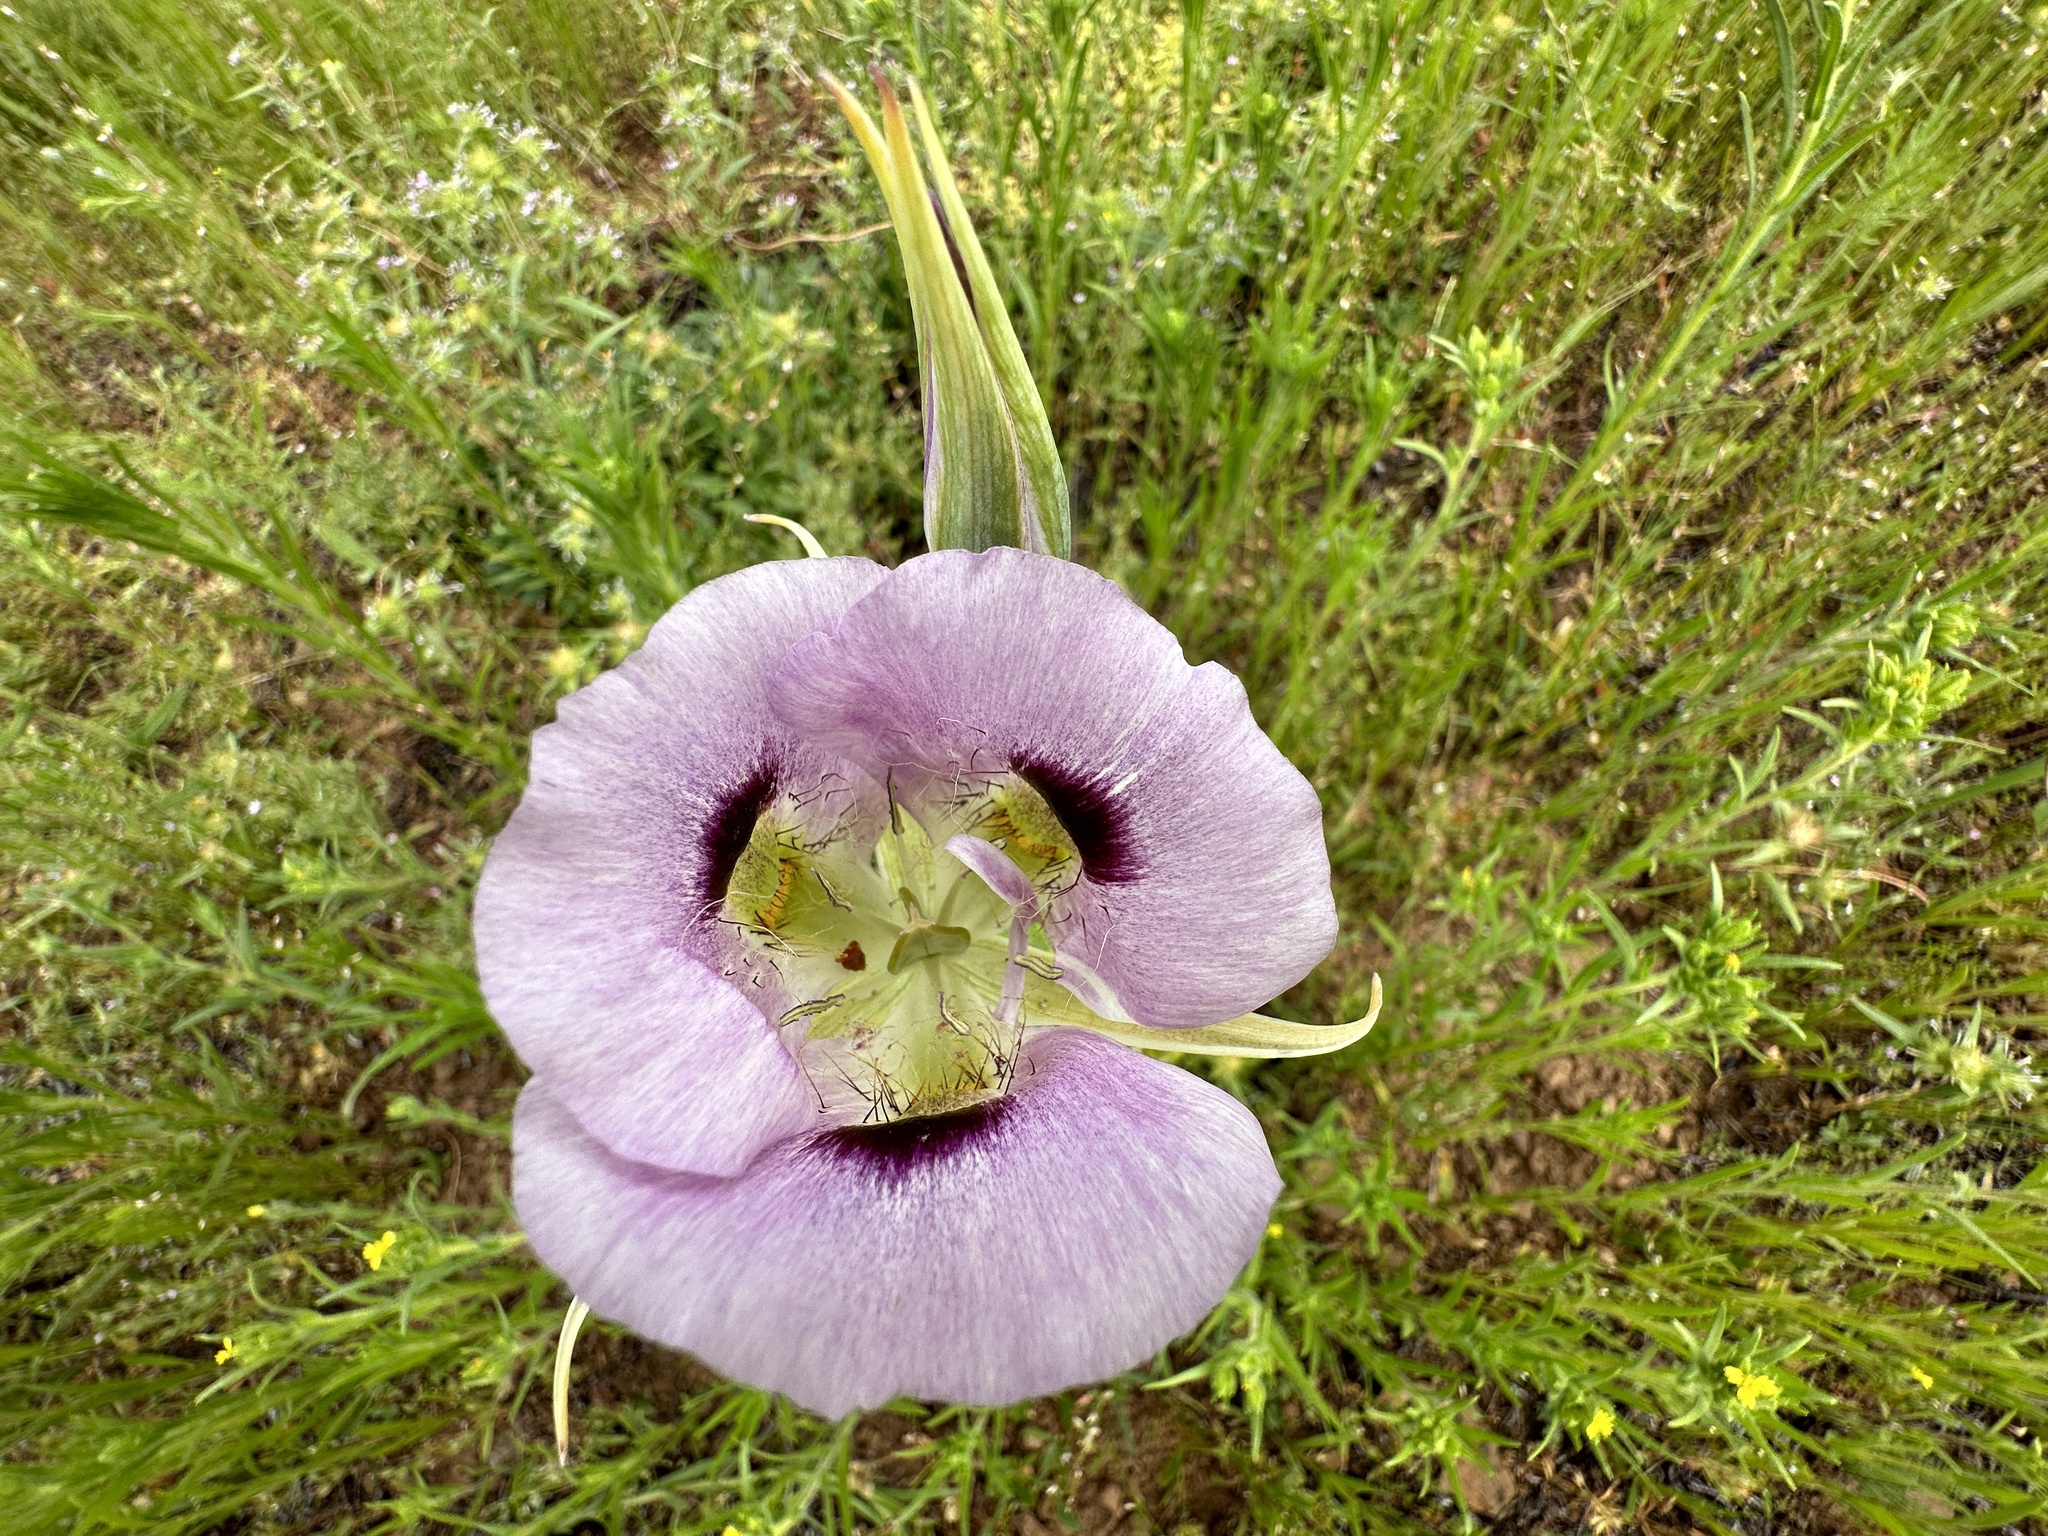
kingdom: Plantae
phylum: Tracheophyta
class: Liliopsida
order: Liliales
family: Liliaceae
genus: Calochortus
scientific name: Calochortus eurycarpus
